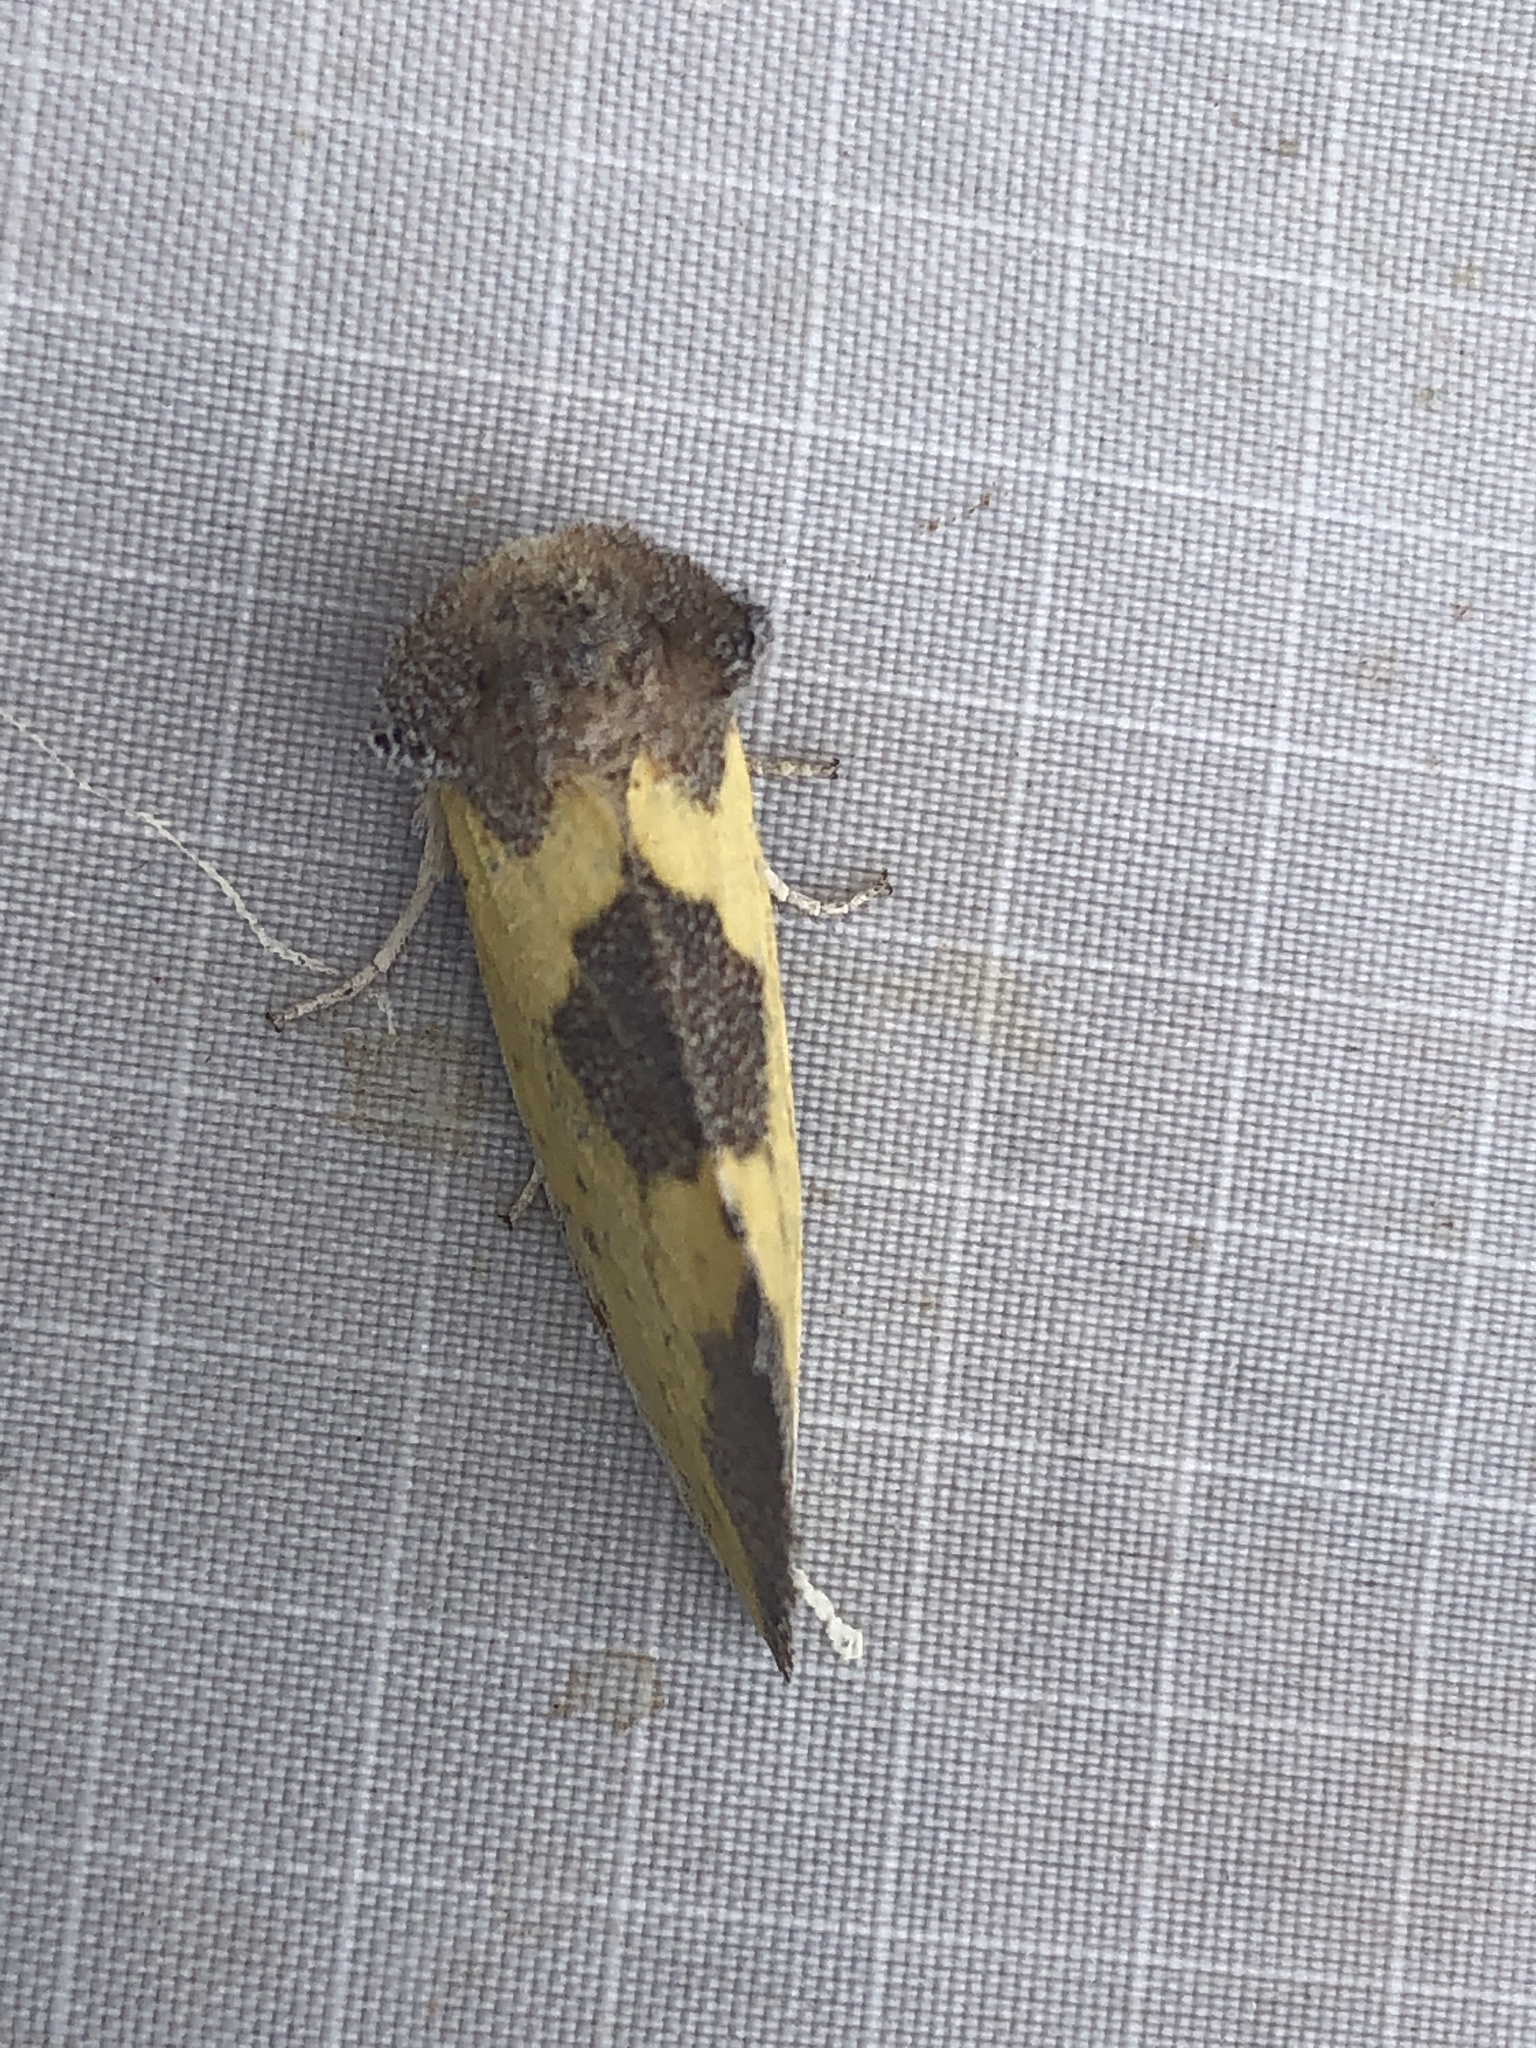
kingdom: Animalia
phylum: Arthropoda
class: Insecta
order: Lepidoptera
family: Noctuidae
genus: Stiria
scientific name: Stiria rugifrons
